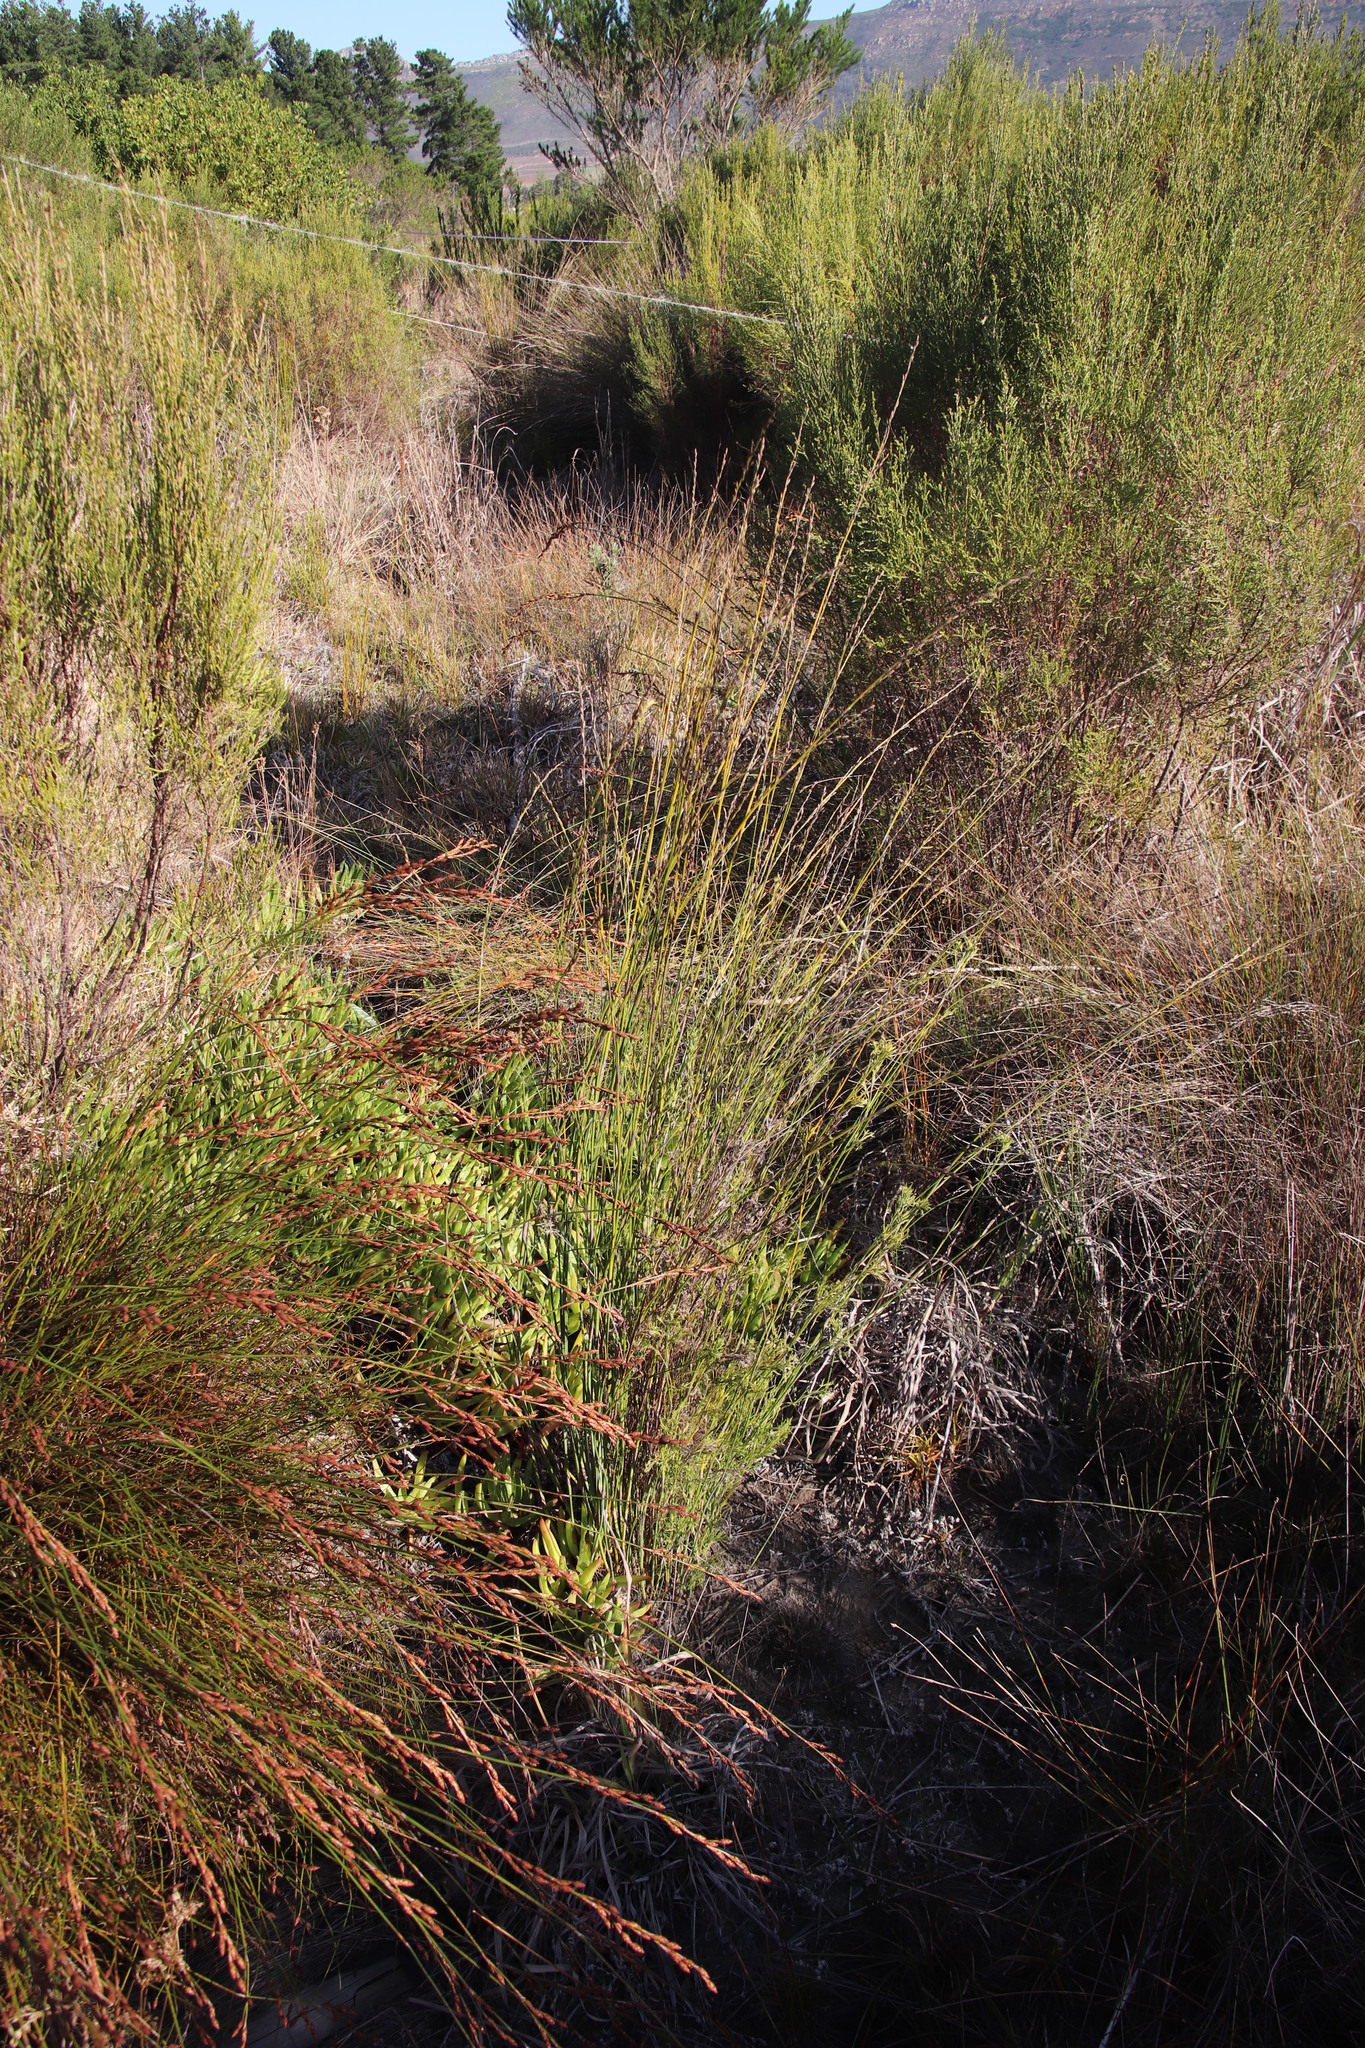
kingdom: Plantae
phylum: Tracheophyta
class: Liliopsida
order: Poales
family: Restionaceae
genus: Restio
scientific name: Restio tetragonus
